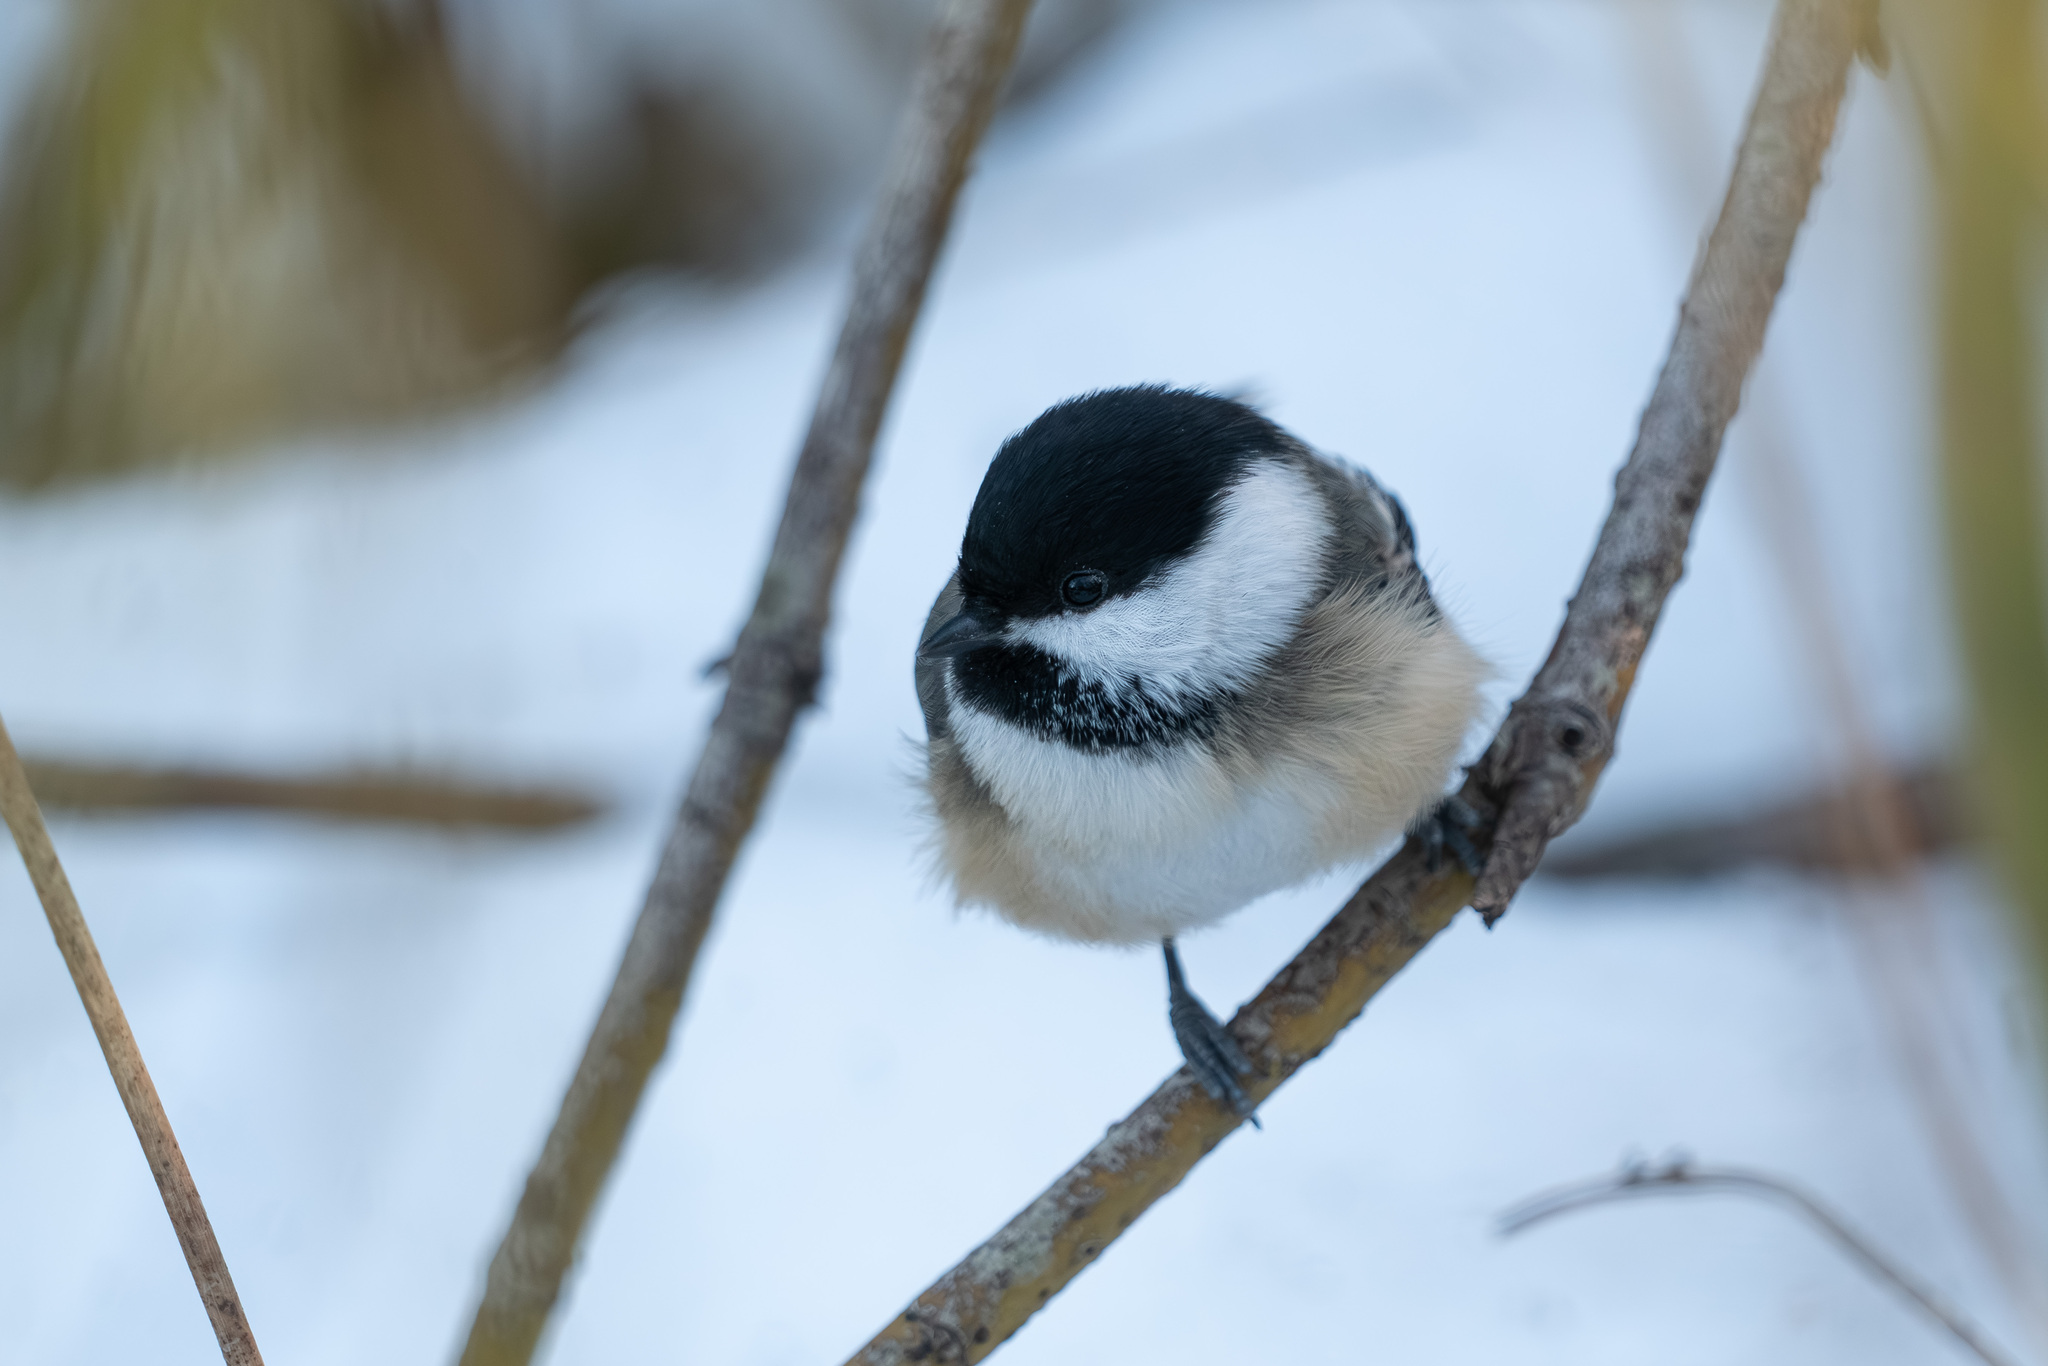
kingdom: Animalia
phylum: Chordata
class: Aves
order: Passeriformes
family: Paridae
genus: Poecile
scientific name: Poecile atricapillus
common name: Black-capped chickadee
